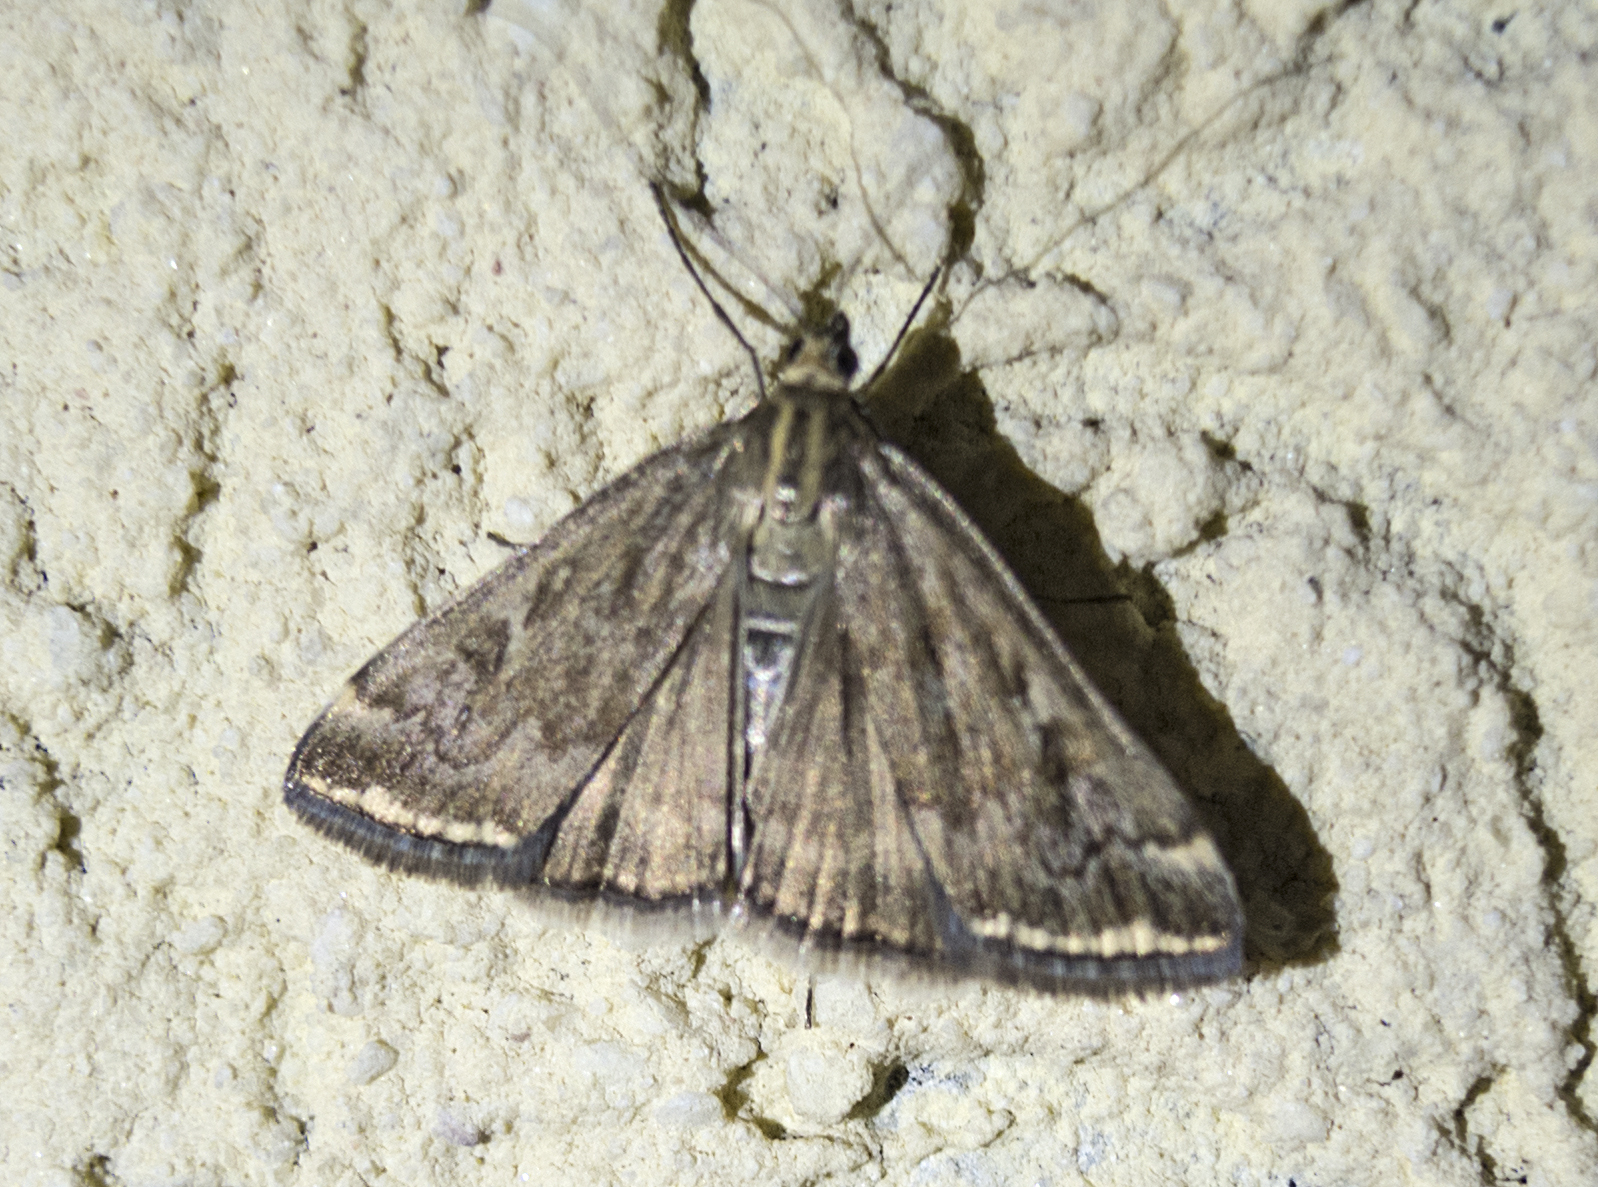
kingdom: Animalia
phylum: Arthropoda
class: Insecta
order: Lepidoptera
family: Crambidae
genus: Loxostege
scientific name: Loxostege sticticalis
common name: Crambid moth
